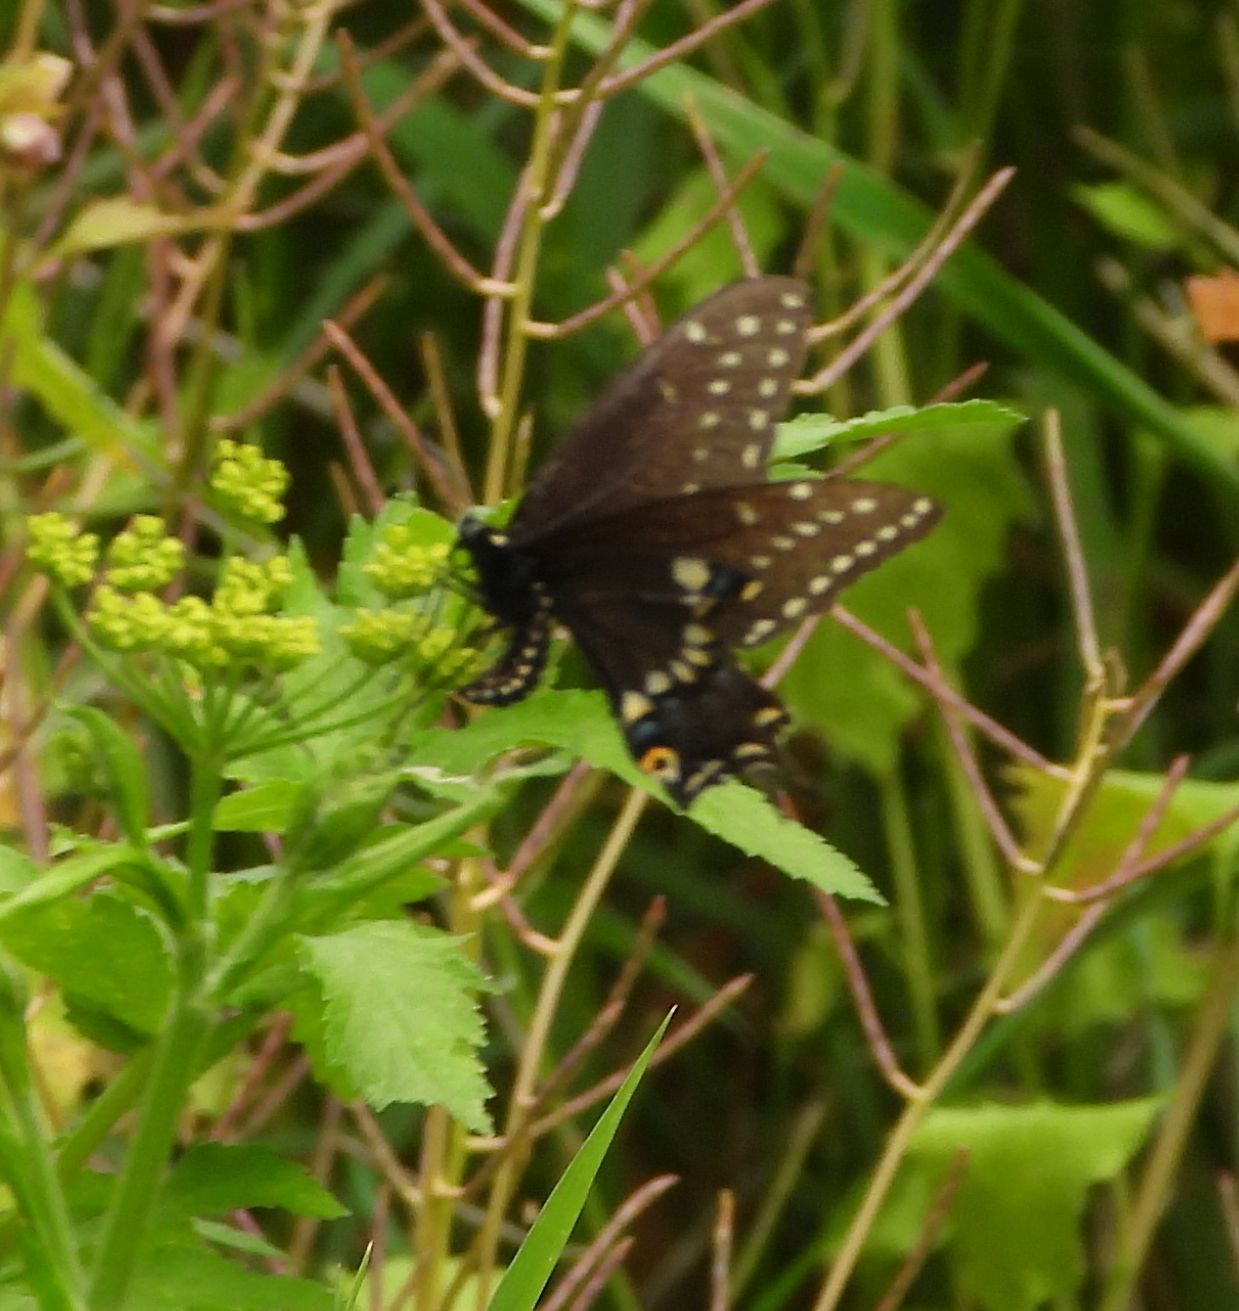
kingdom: Animalia
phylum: Arthropoda
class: Insecta
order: Lepidoptera
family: Papilionidae
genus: Papilio
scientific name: Papilio polyxenes
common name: Black swallowtail
